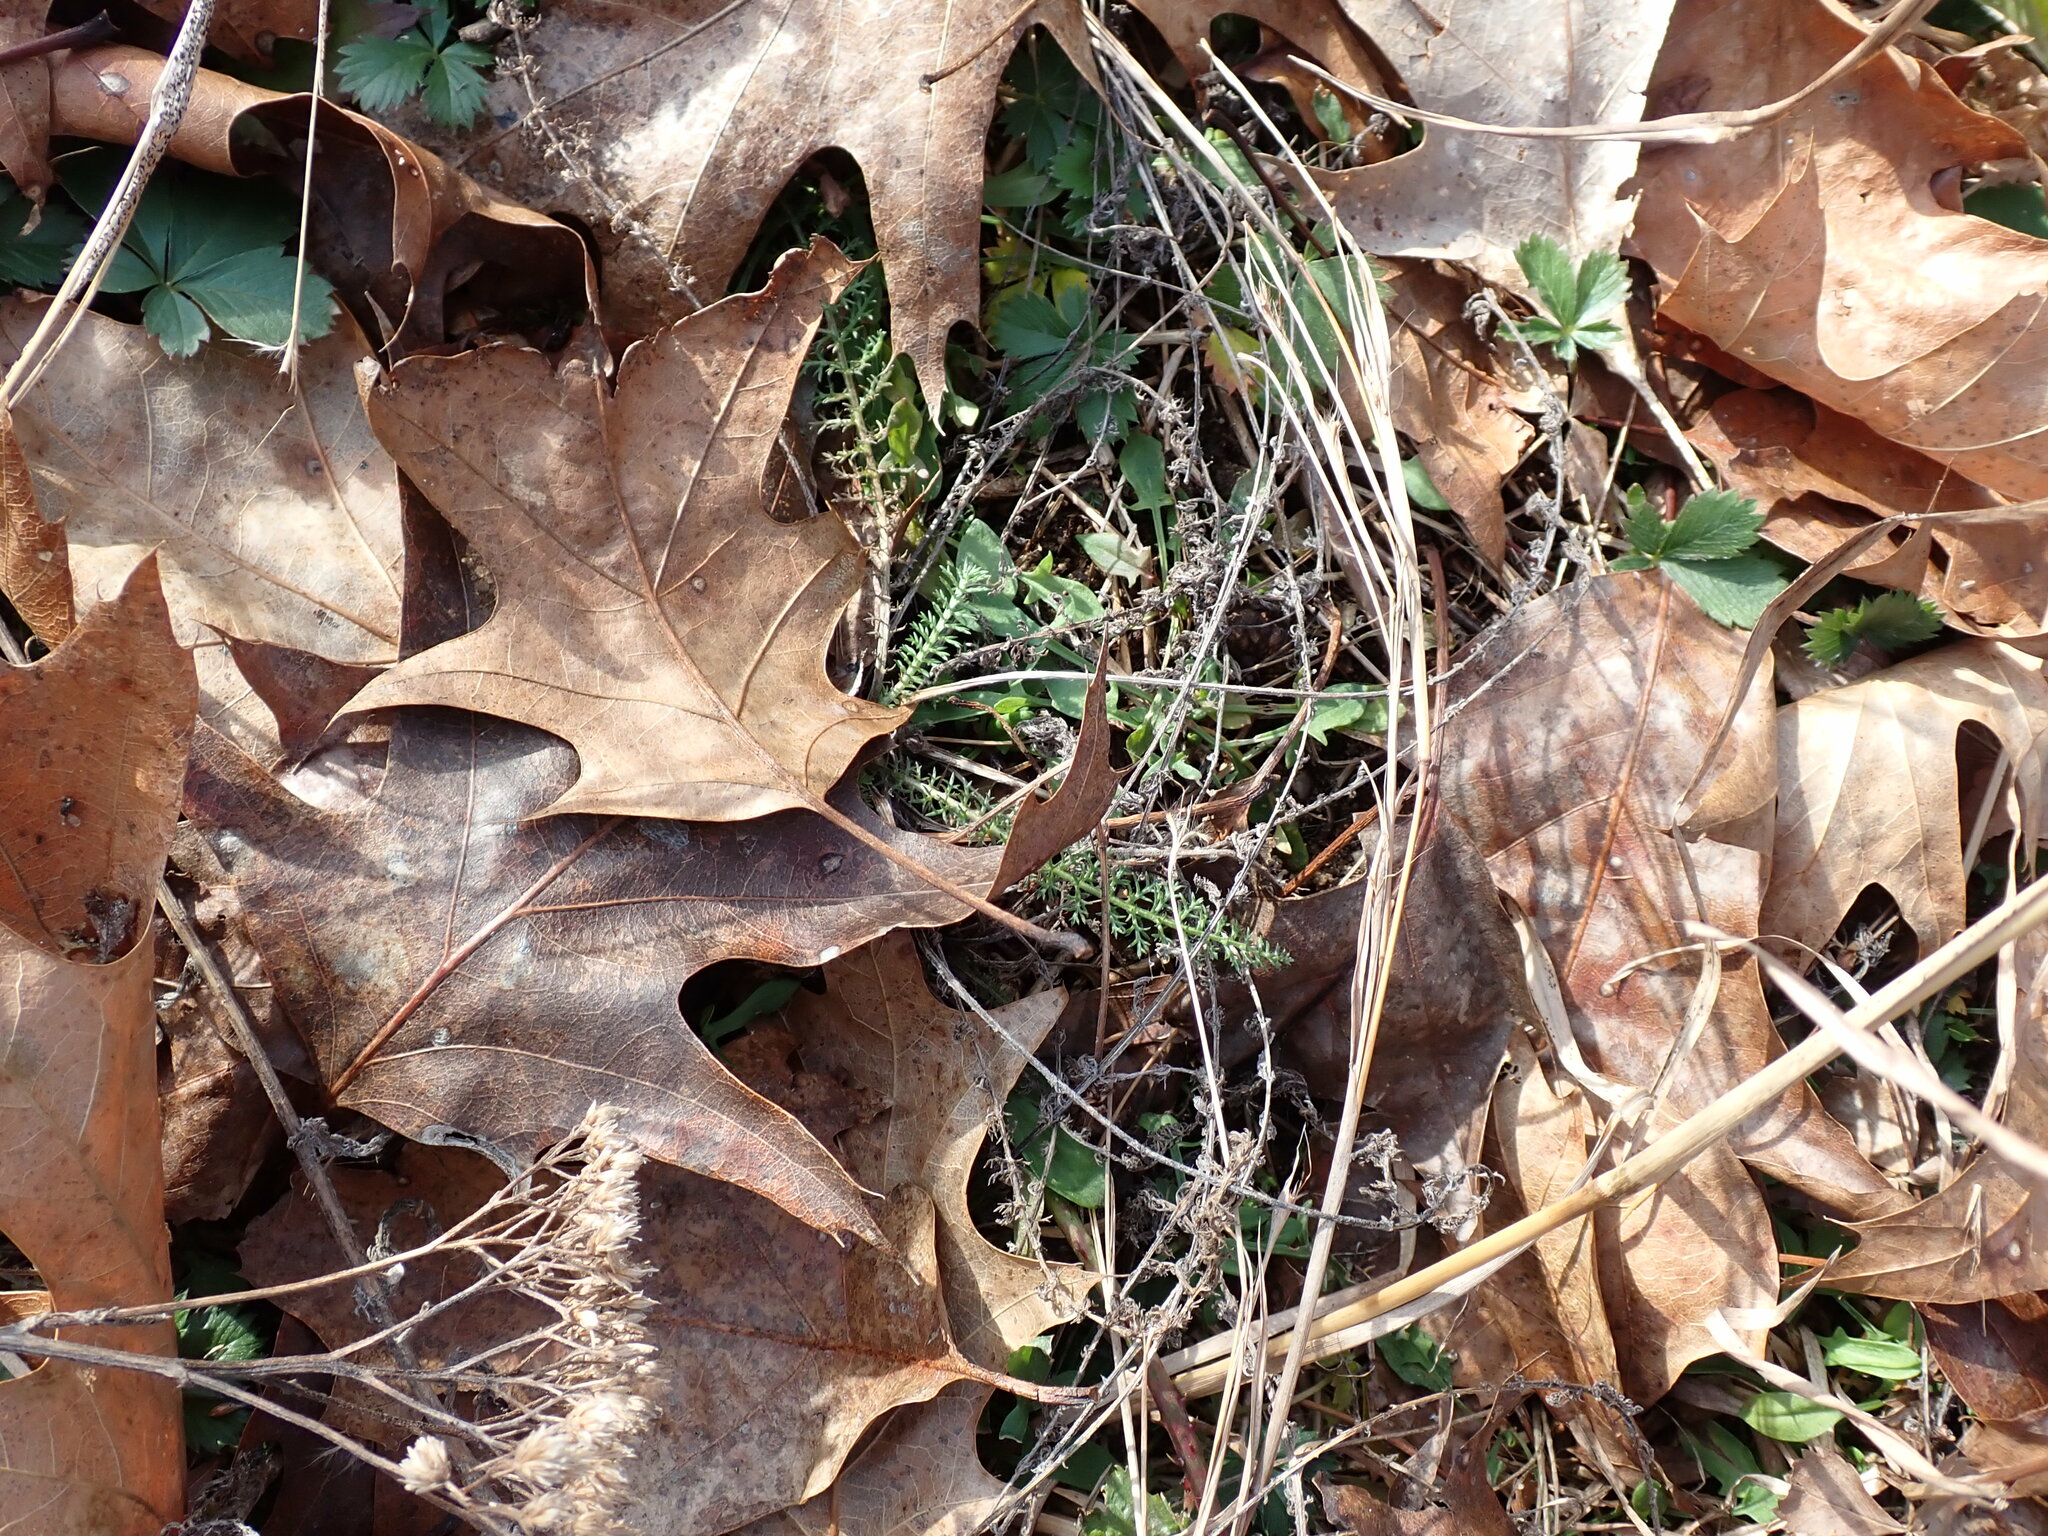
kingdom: Plantae
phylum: Tracheophyta
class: Magnoliopsida
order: Asterales
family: Asteraceae
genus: Achillea
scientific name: Achillea millefolium
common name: Yarrow
